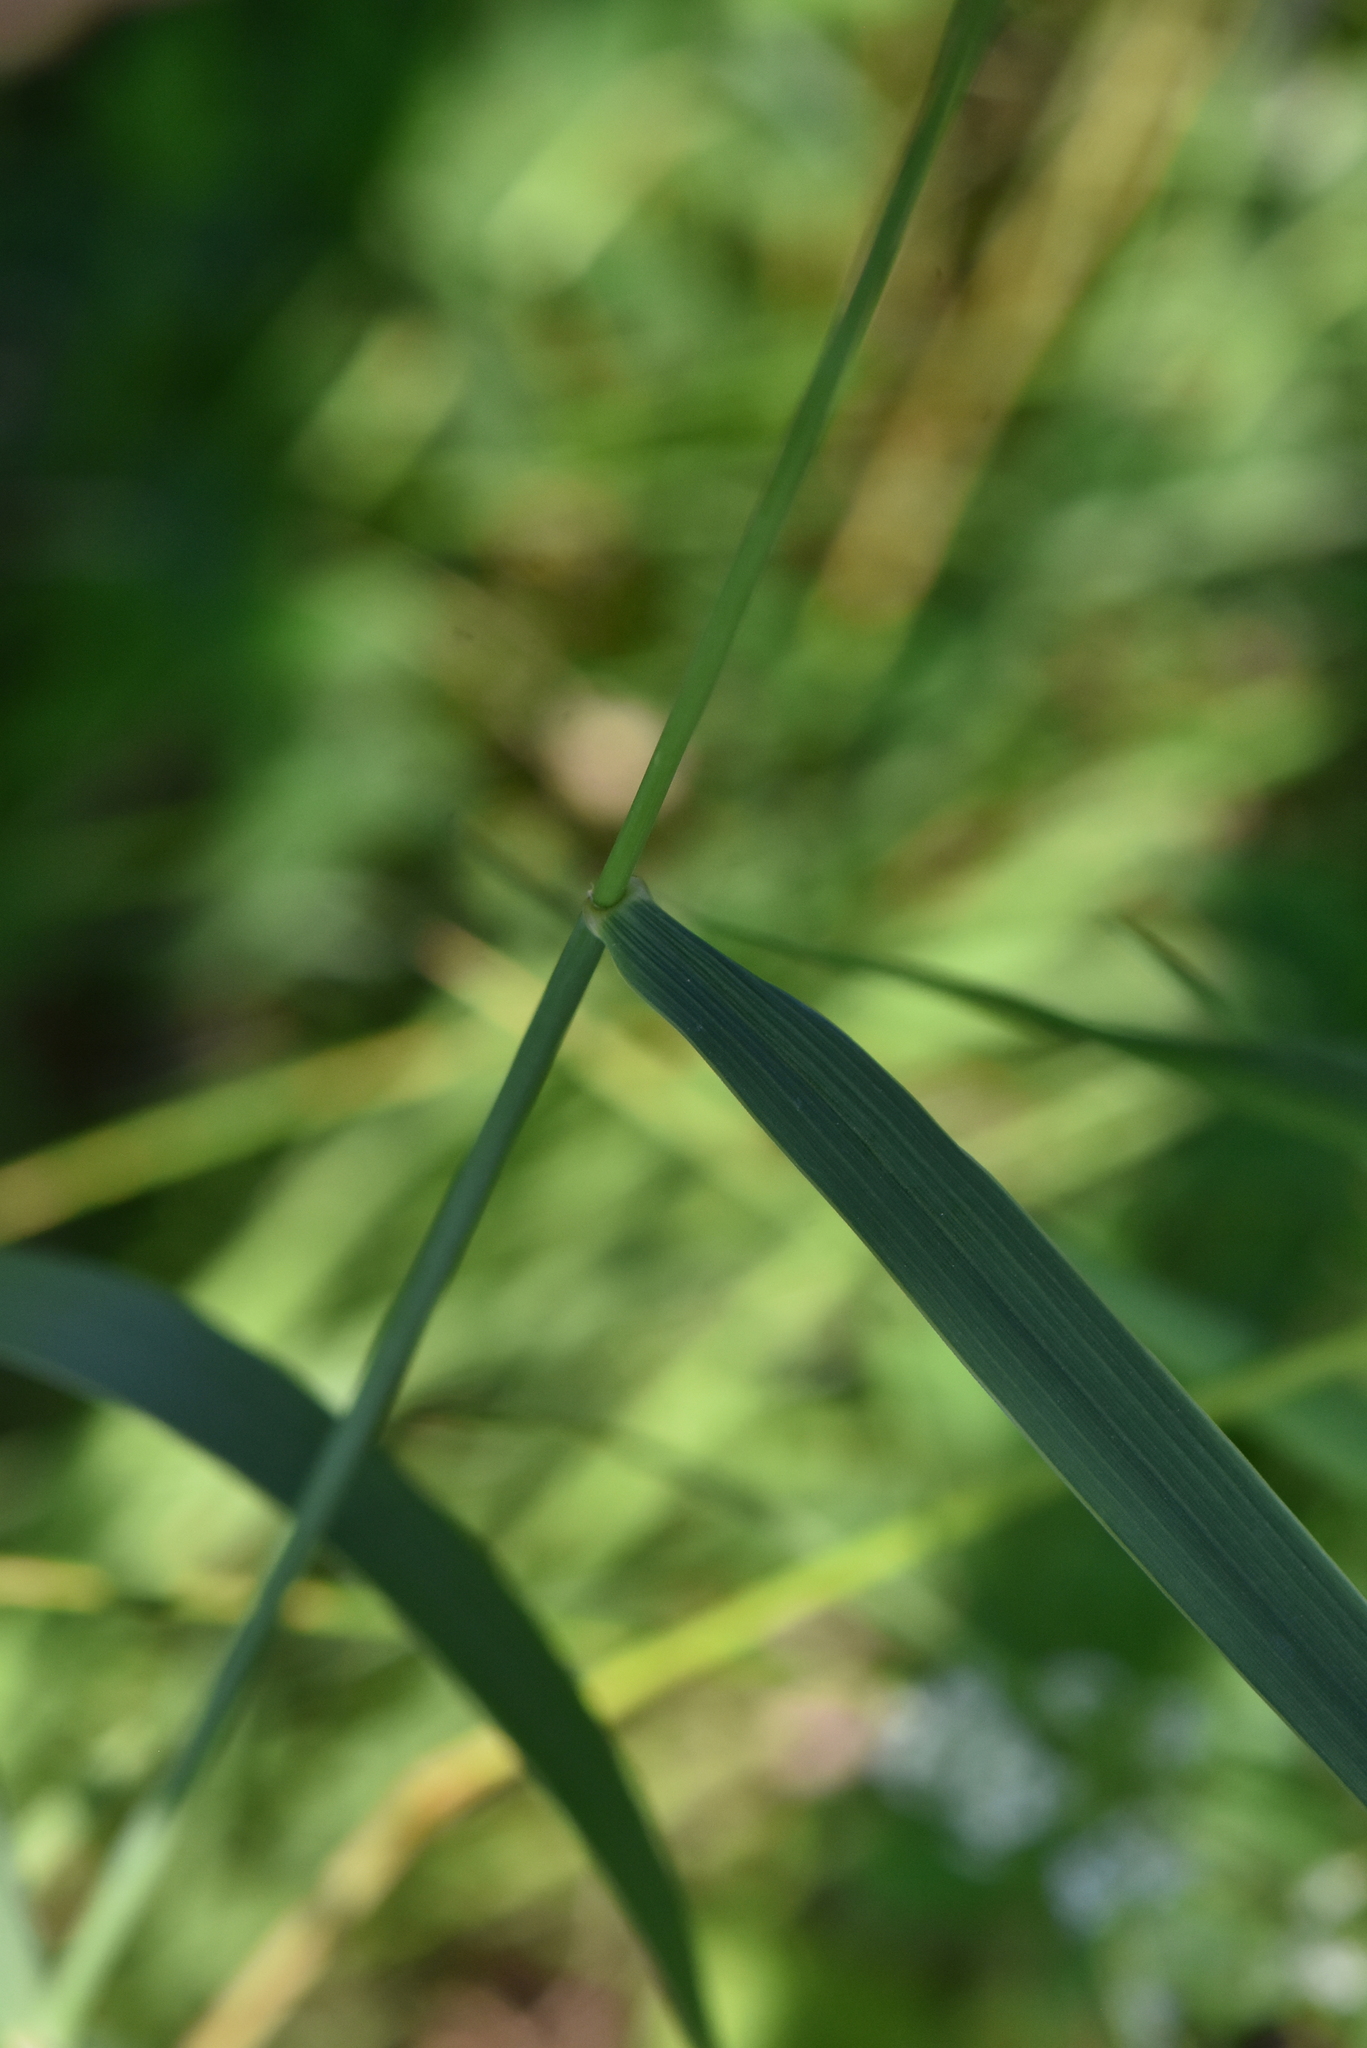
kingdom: Plantae
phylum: Tracheophyta
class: Liliopsida
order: Poales
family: Poaceae
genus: Elymus
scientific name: Elymus repens
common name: Quackgrass
